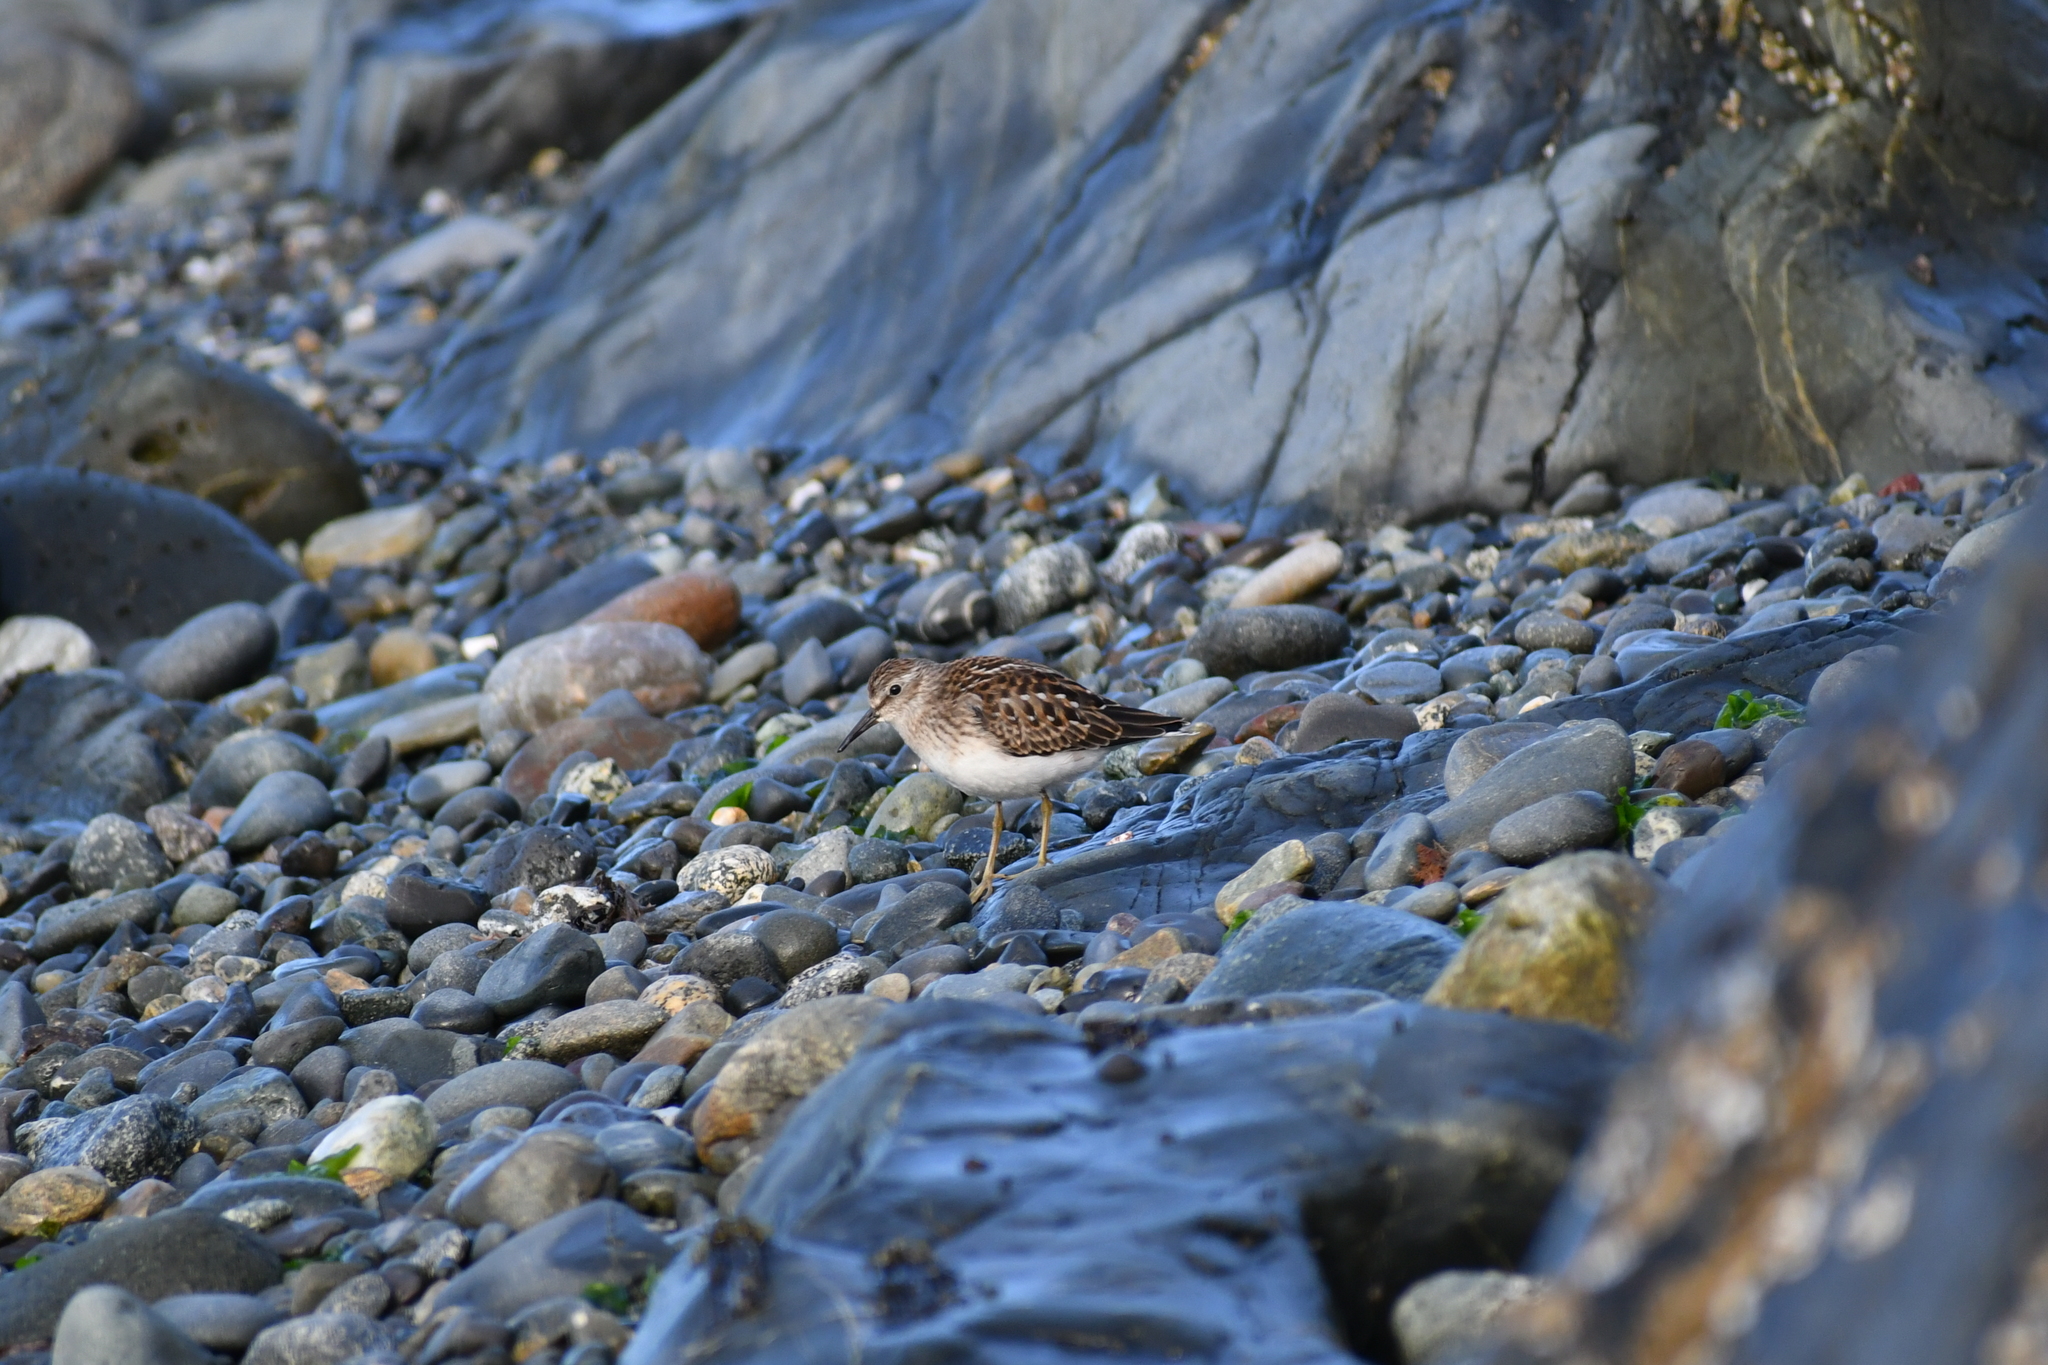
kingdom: Animalia
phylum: Chordata
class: Aves
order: Charadriiformes
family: Scolopacidae
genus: Calidris
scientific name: Calidris minutilla
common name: Least sandpiper
